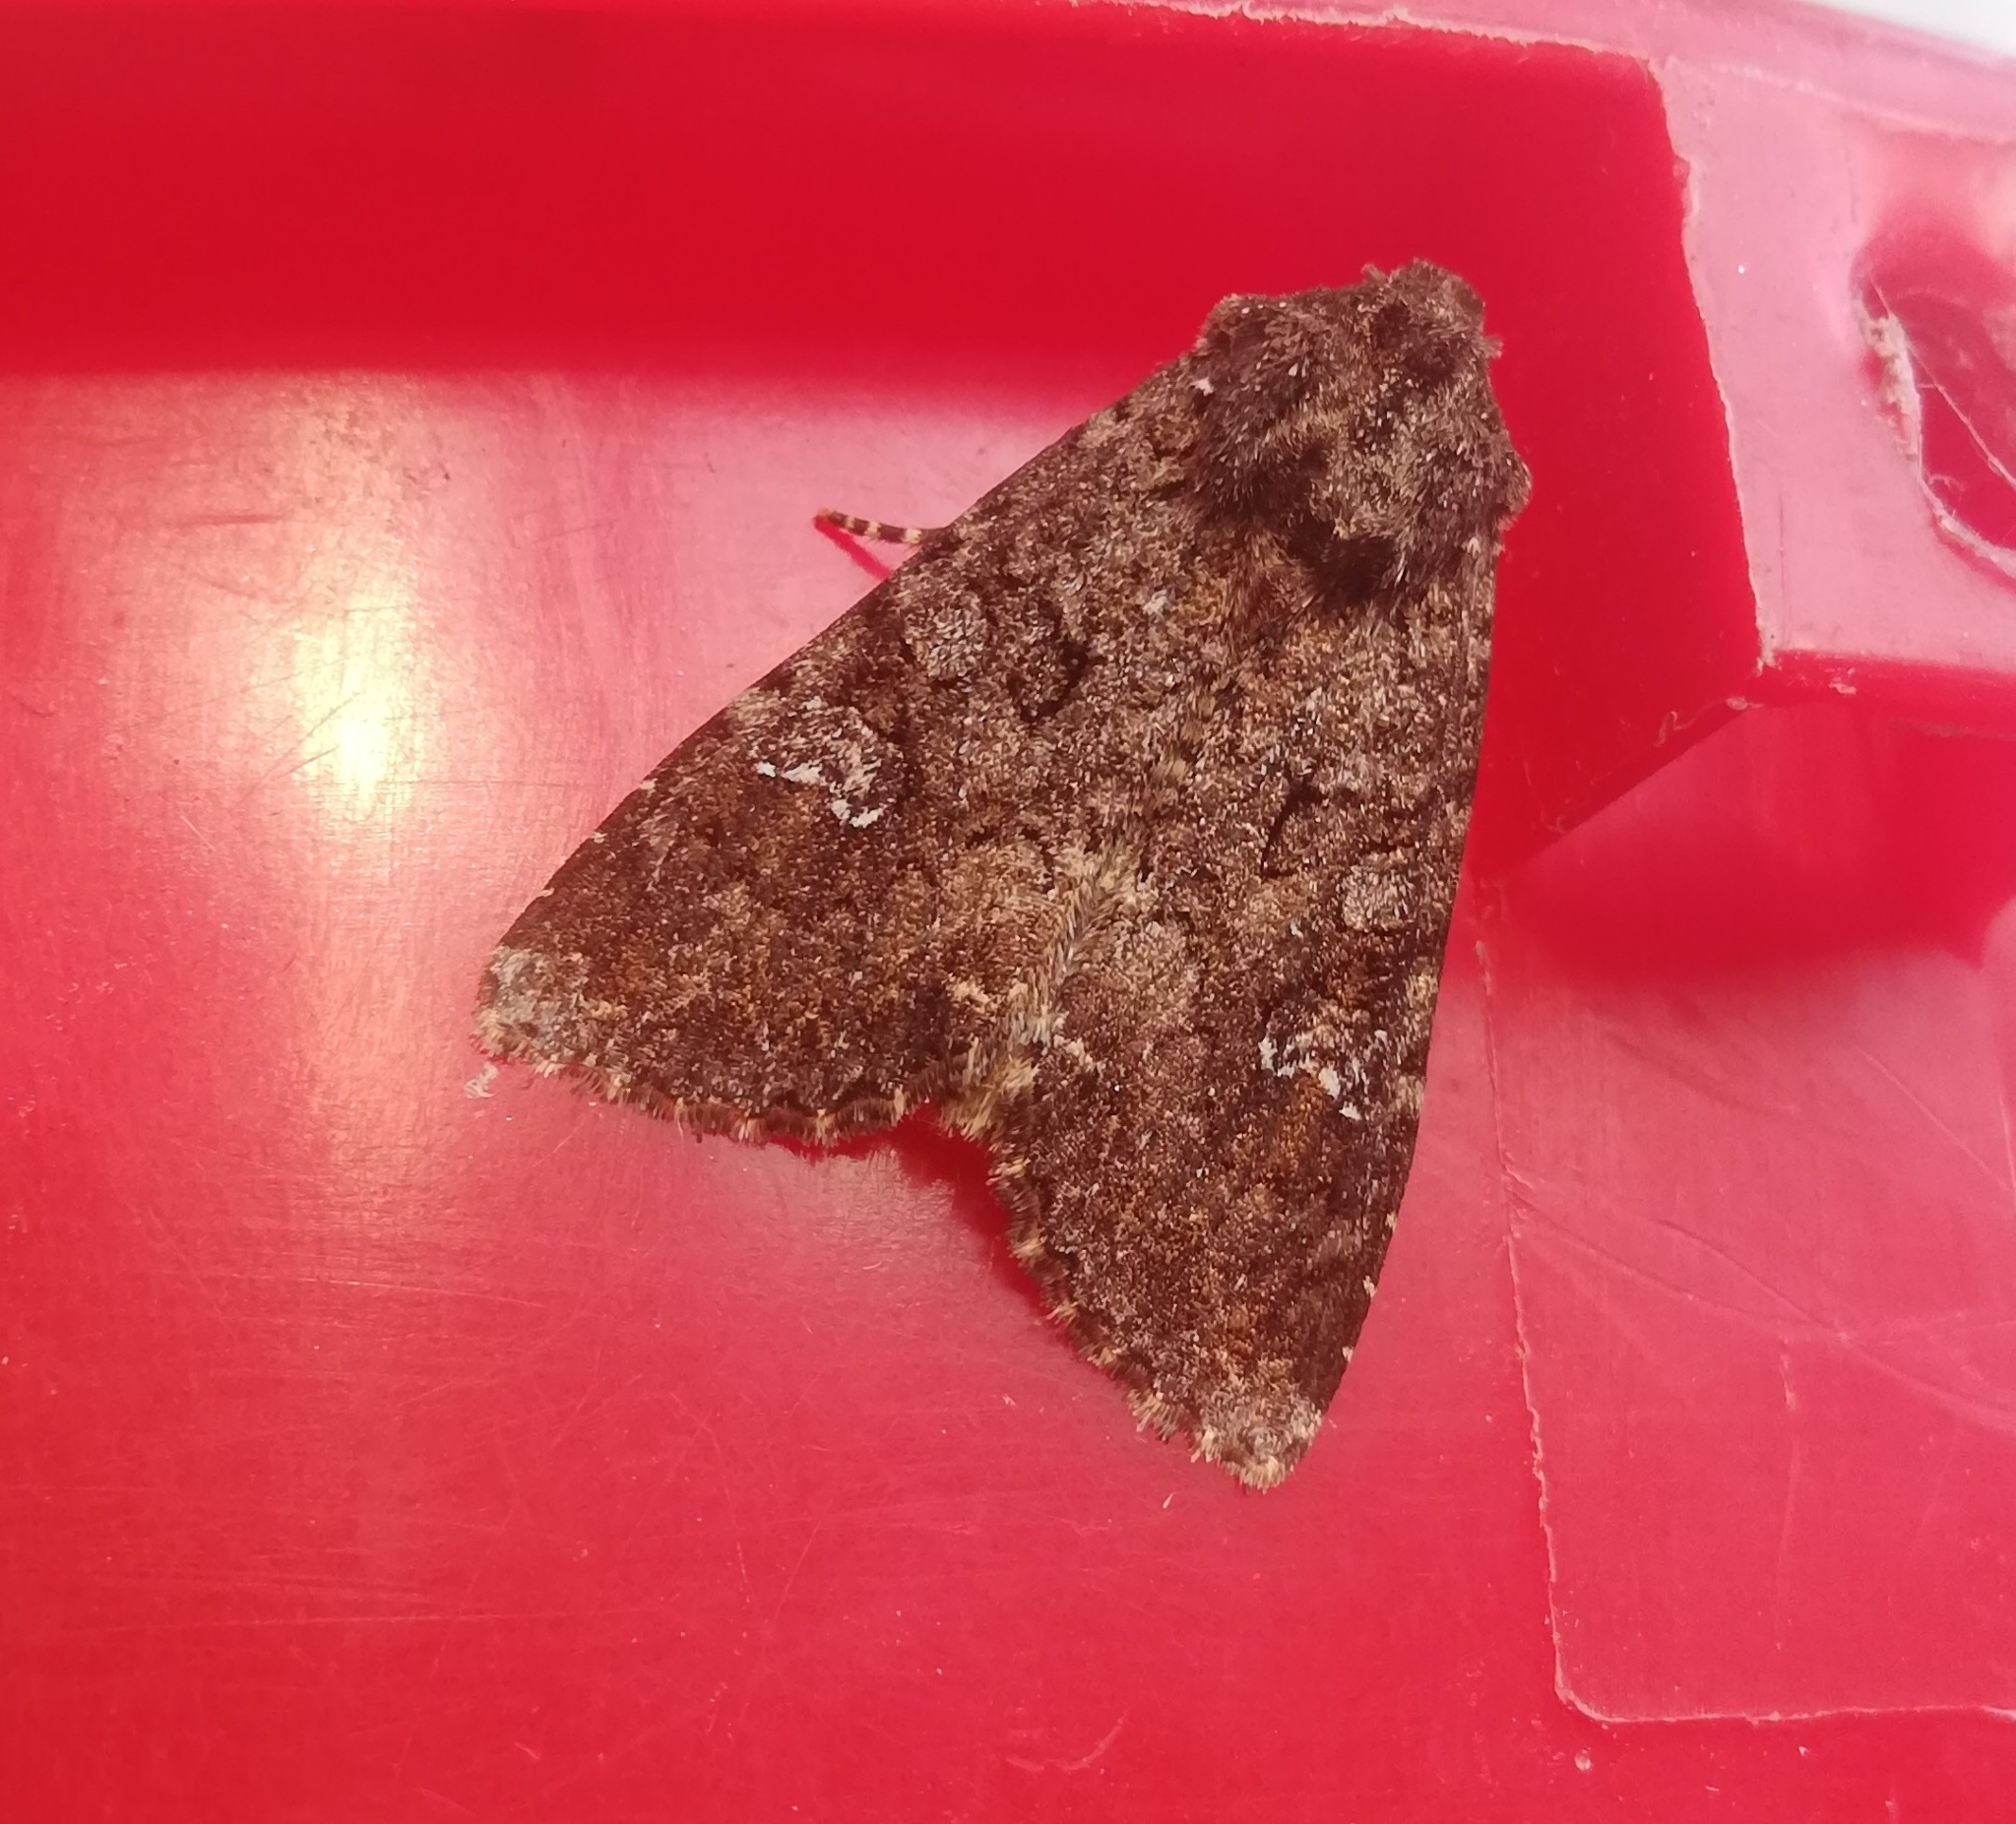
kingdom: Animalia
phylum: Arthropoda
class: Insecta
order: Lepidoptera
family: Noctuidae
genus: Mamestra
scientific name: Mamestra brassicae
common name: Cabbage moth
